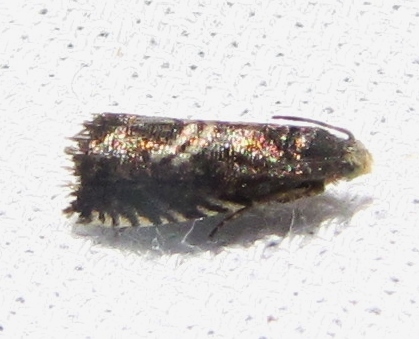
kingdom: Animalia
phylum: Arthropoda
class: Insecta
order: Lepidoptera
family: Tortricidae
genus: Grapholita
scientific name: Grapholita interstinctana
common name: Clover head caterpillar moth
